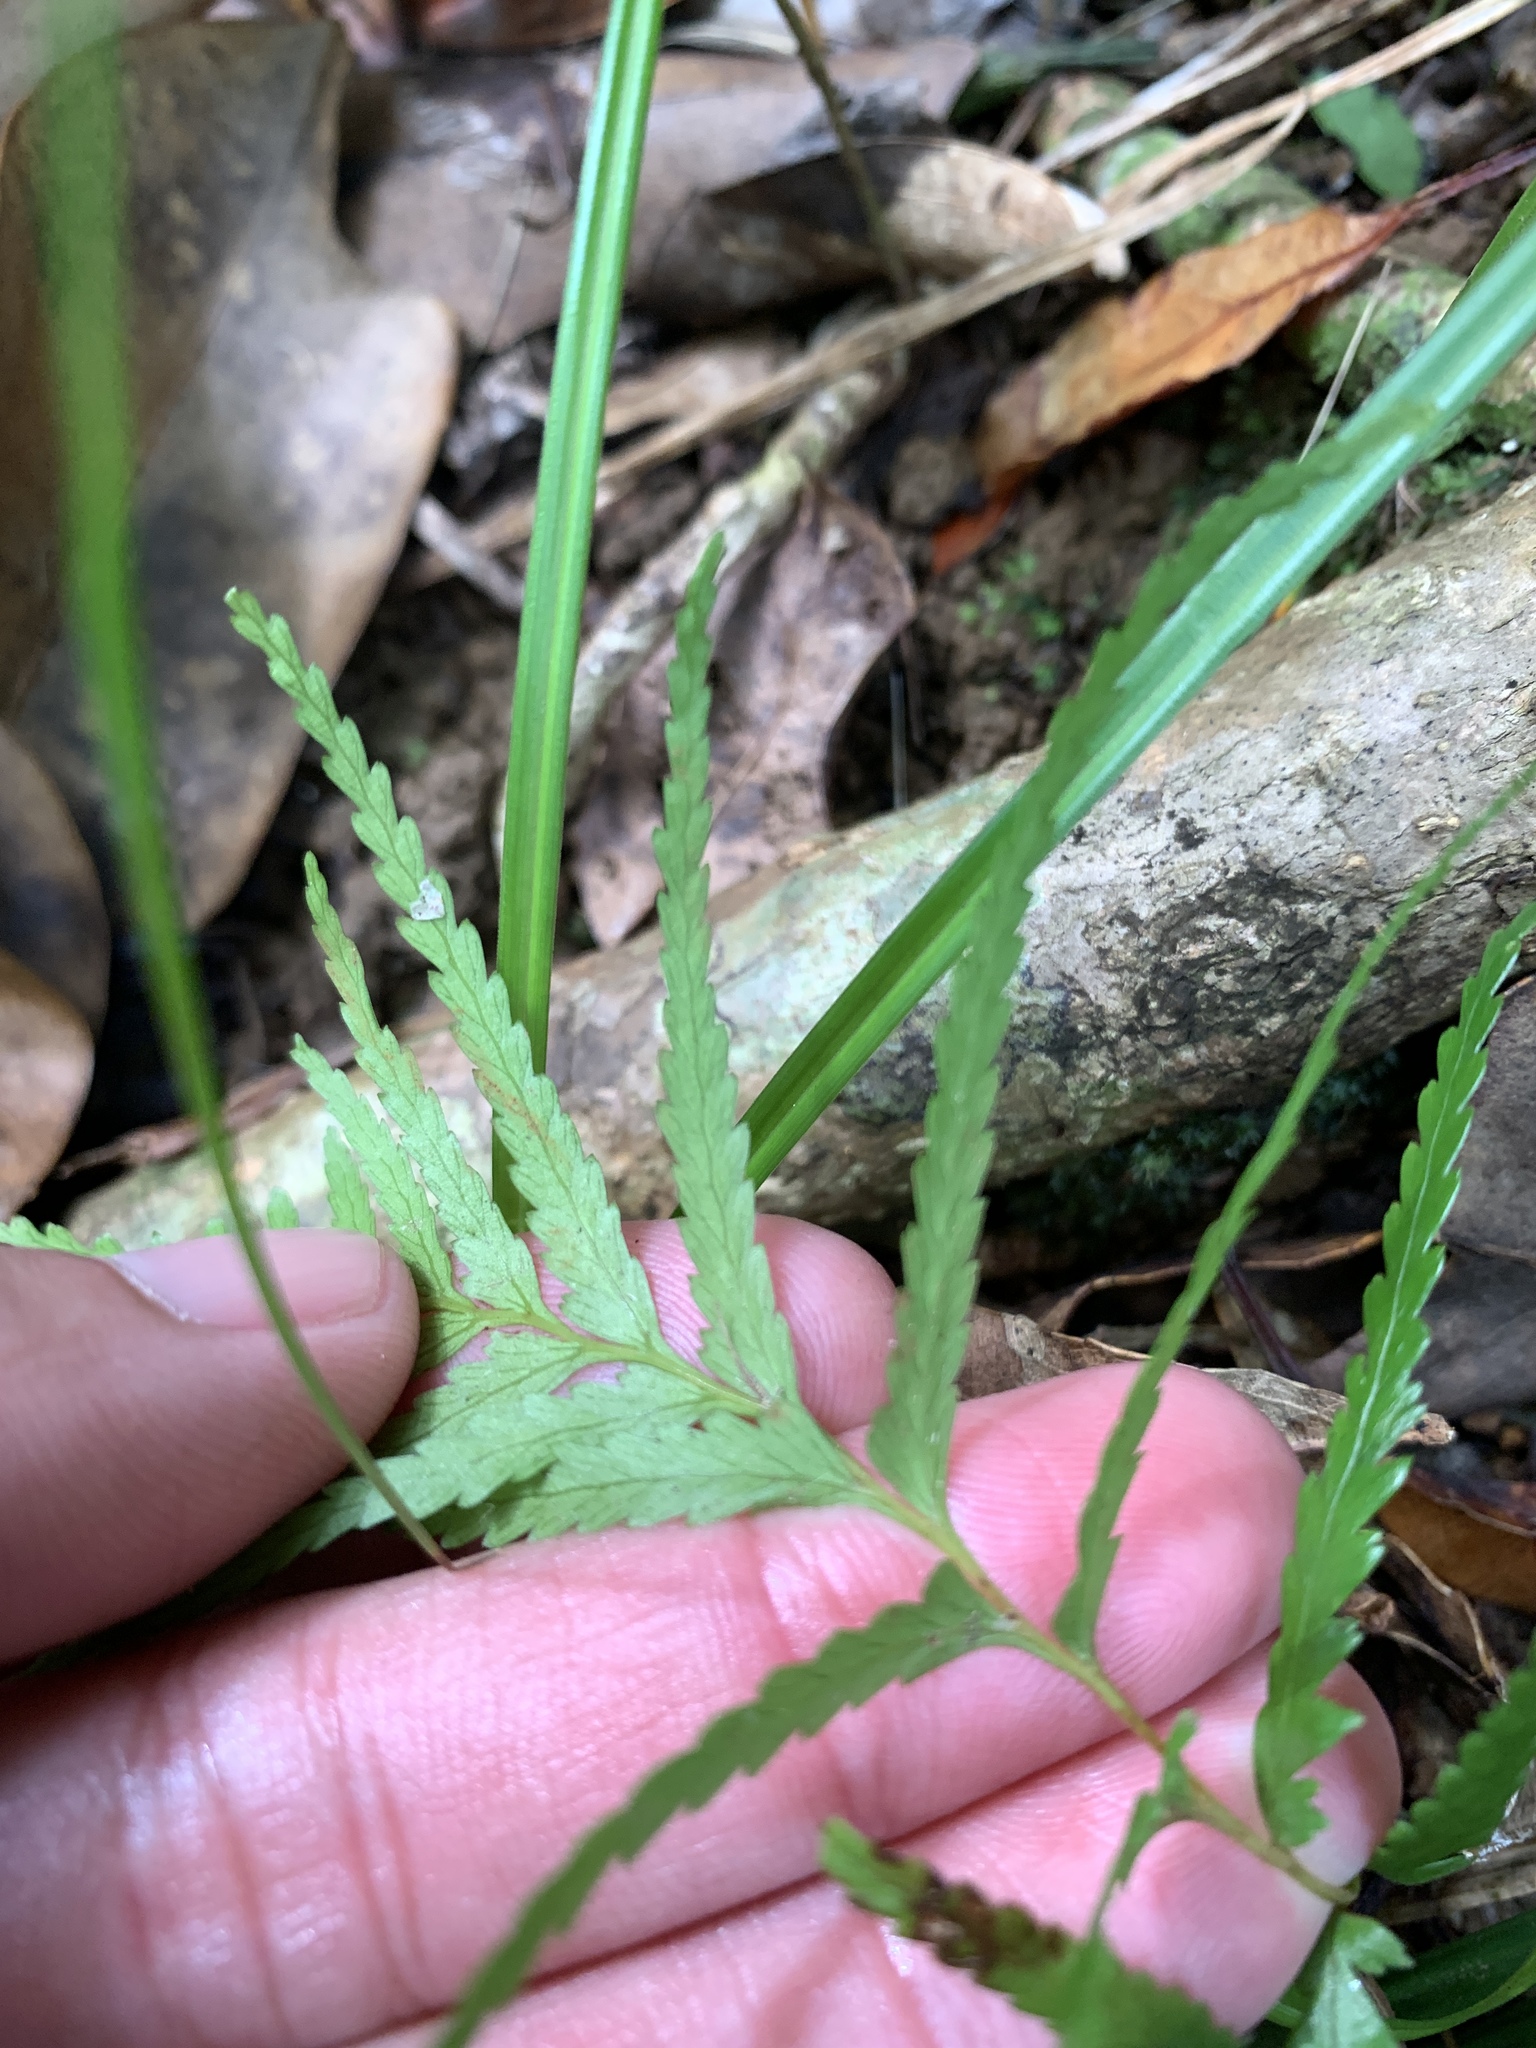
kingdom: Plantae
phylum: Tracheophyta
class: Polypodiopsida
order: Polypodiales
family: Lindsaeaceae
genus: Tapeinidium
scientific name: Tapeinidium pinnatum
